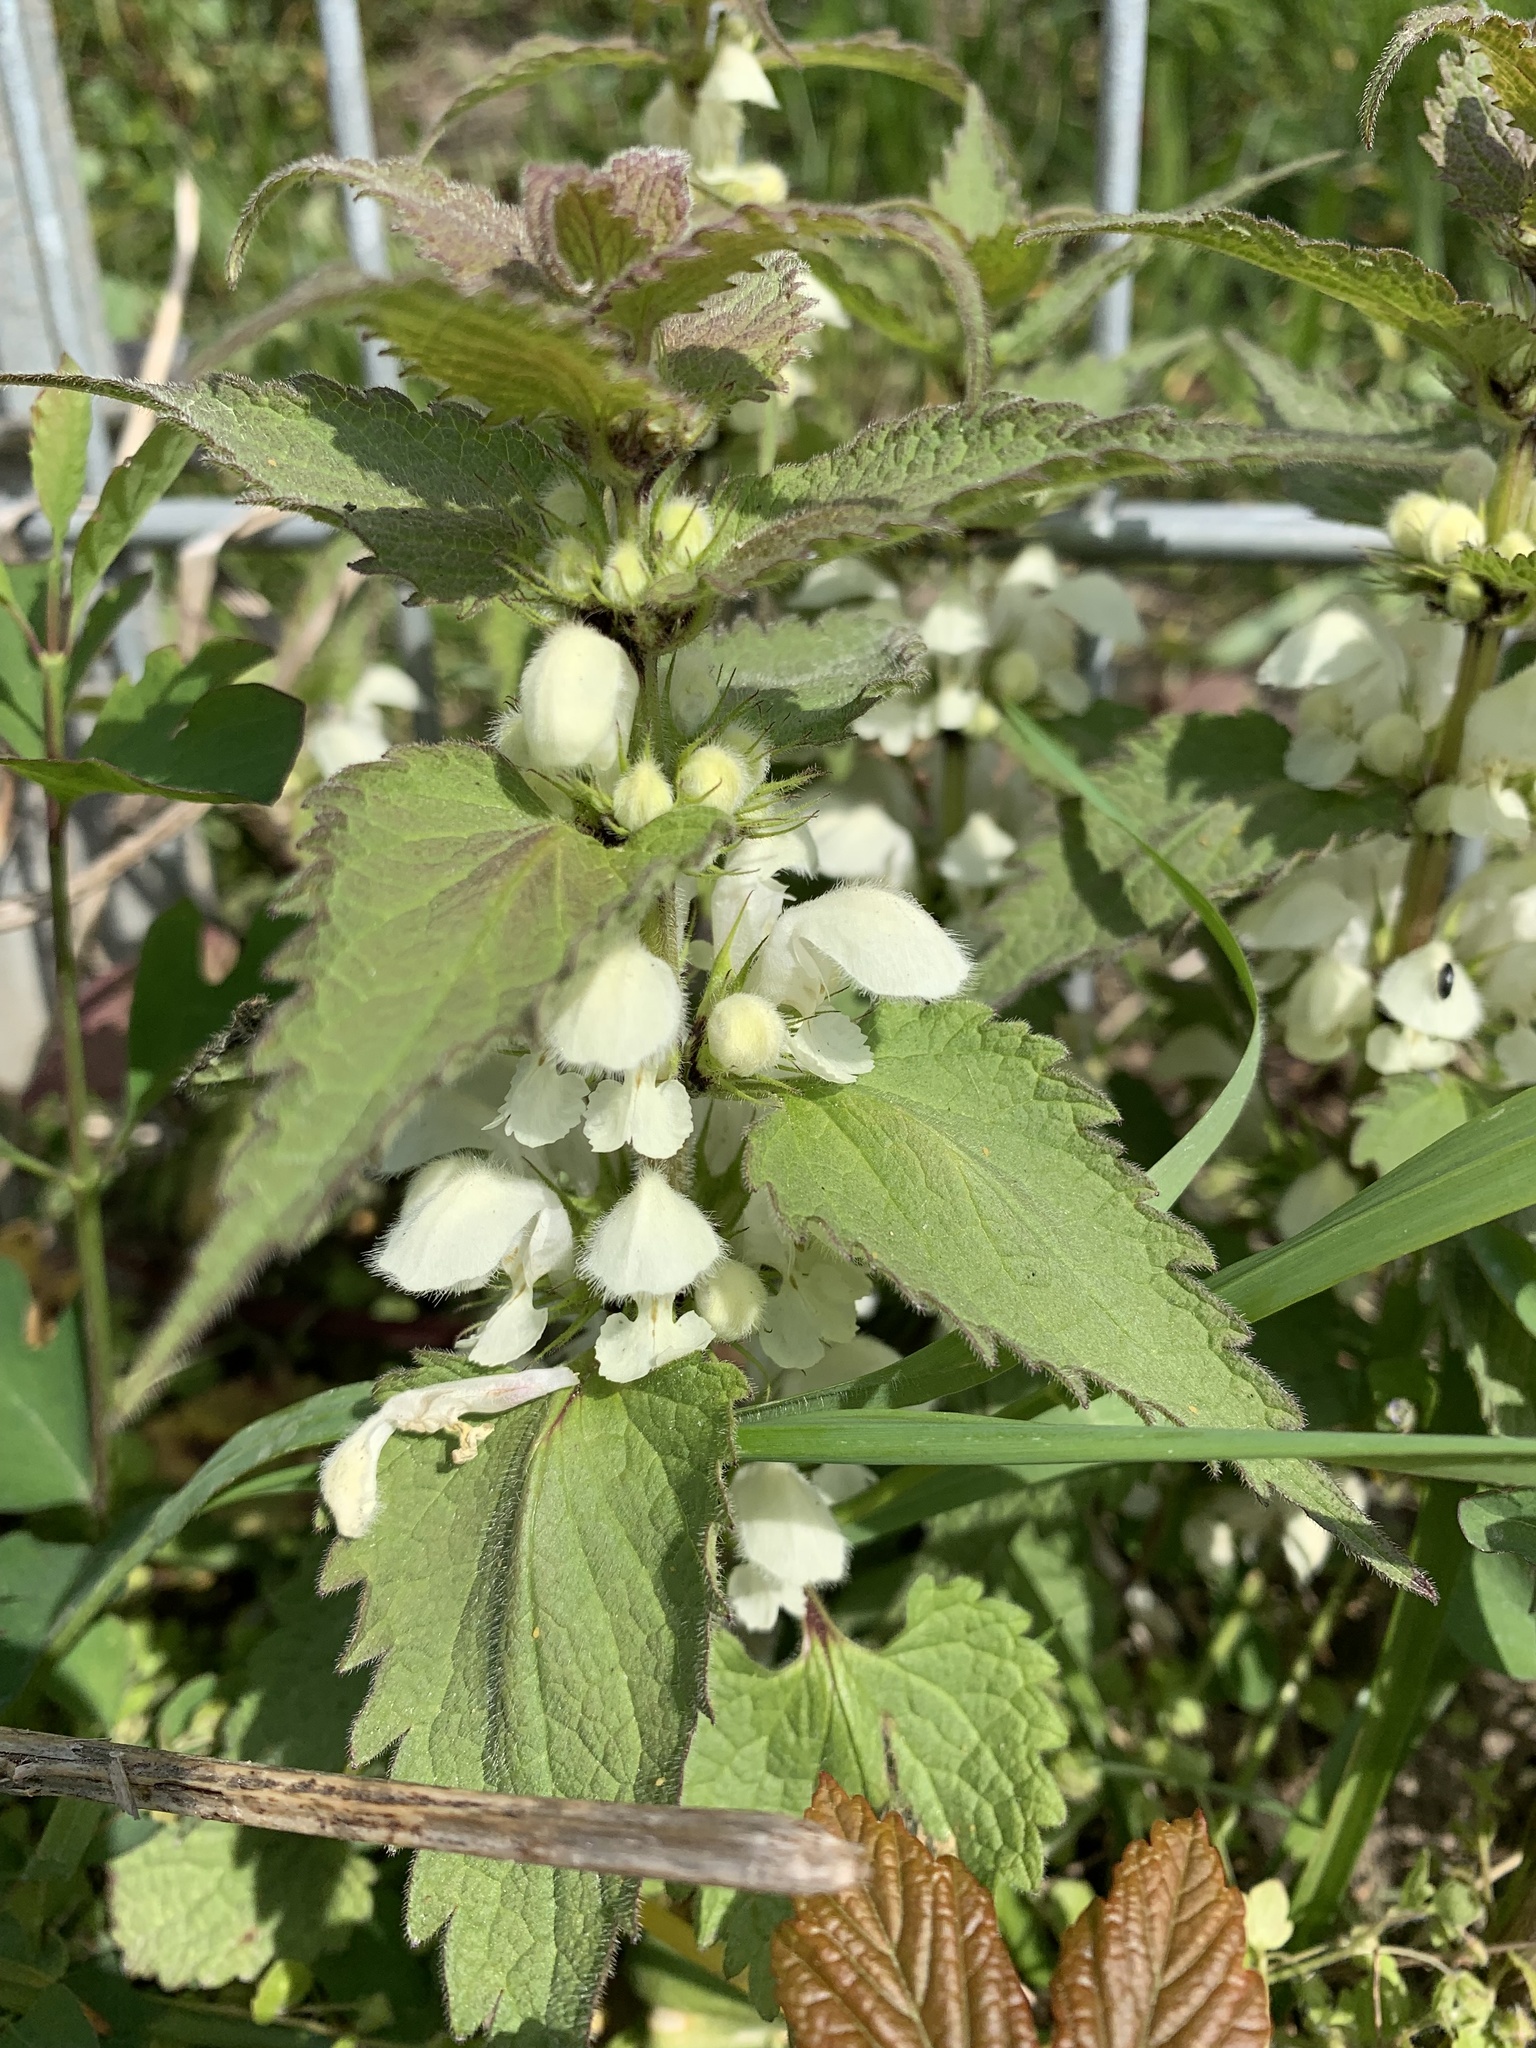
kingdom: Plantae
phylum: Tracheophyta
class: Magnoliopsida
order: Lamiales
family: Lamiaceae
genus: Lamium
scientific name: Lamium album
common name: White dead-nettle
